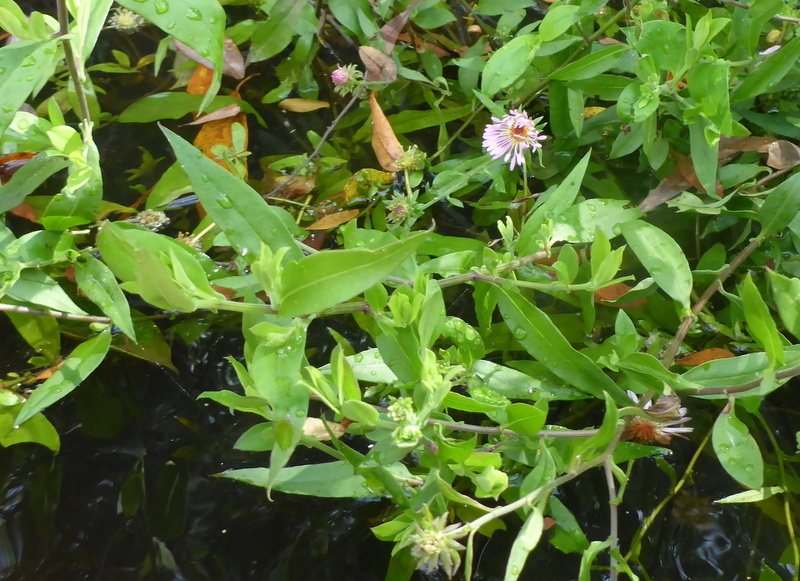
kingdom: Plantae
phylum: Tracheophyta
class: Magnoliopsida
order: Asterales
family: Asteraceae
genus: Ampelaster
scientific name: Ampelaster carolinianus
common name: Climbing aster
